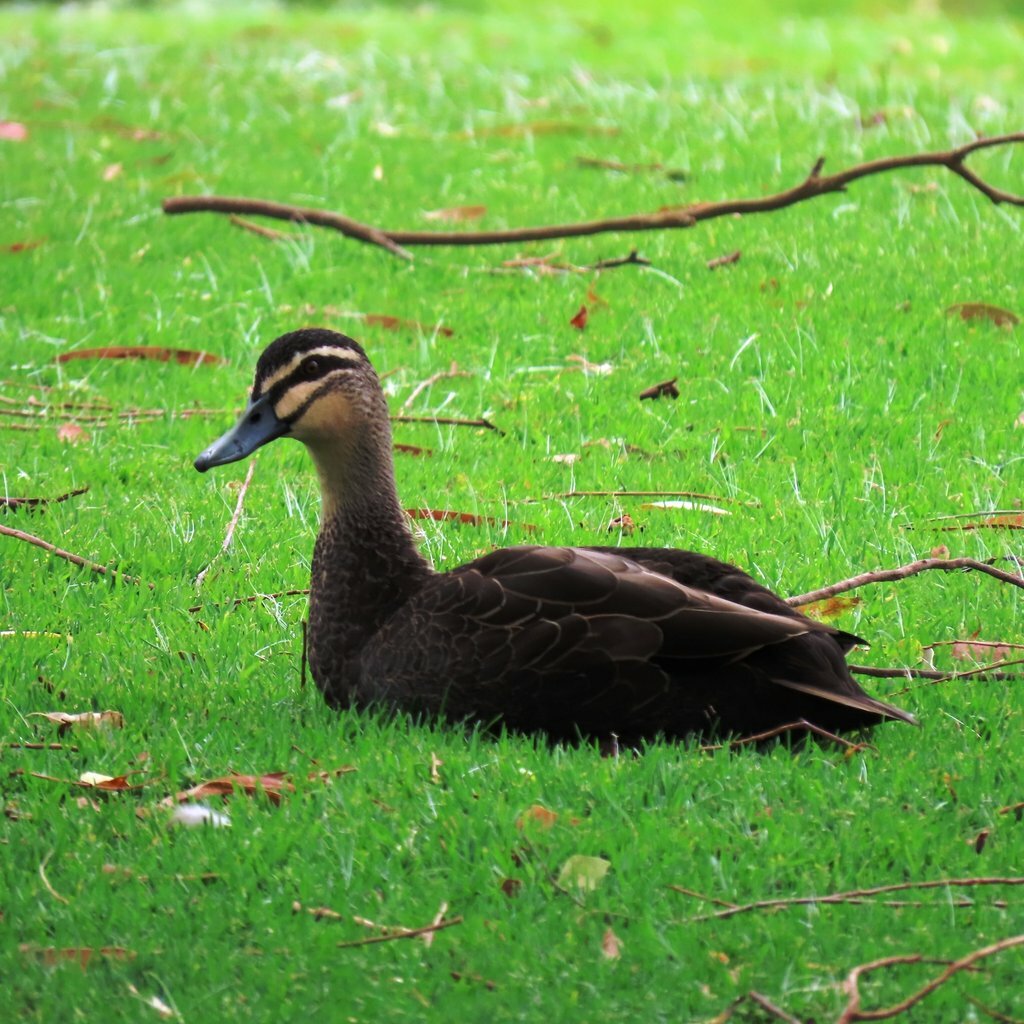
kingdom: Animalia
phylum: Chordata
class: Aves
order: Anseriformes
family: Anatidae
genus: Anas
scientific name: Anas superciliosa
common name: Pacific black duck
